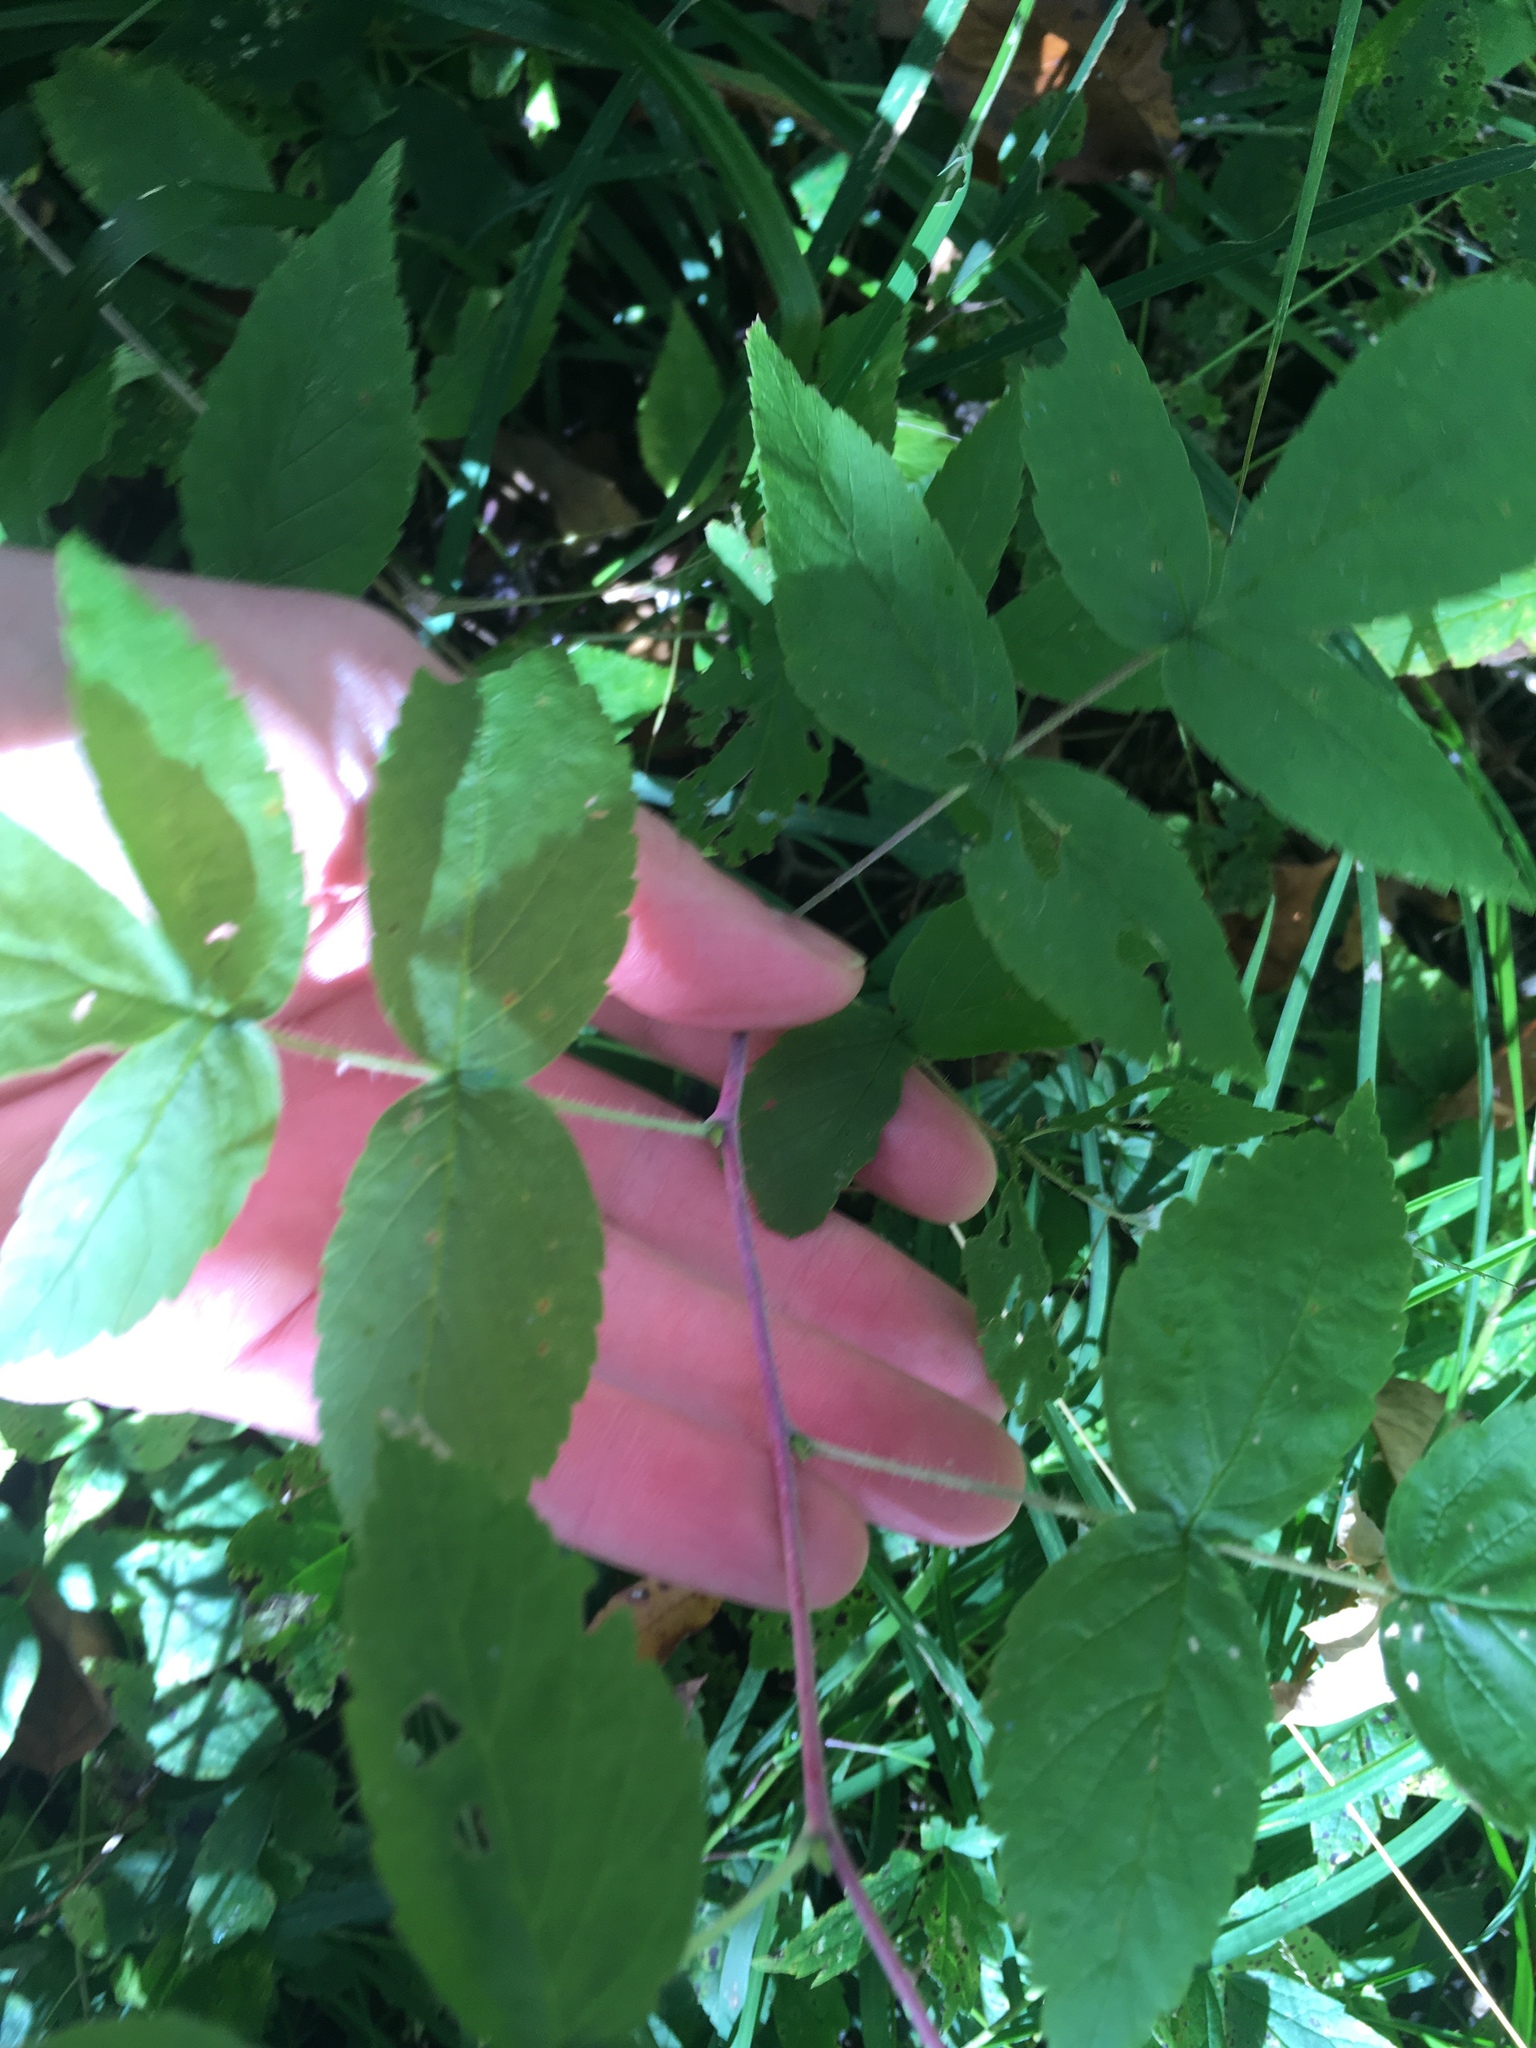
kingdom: Plantae
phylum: Tracheophyta
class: Magnoliopsida
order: Rosales
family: Rosaceae
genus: Rubus
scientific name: Rubus occidentalis
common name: Black raspberry
